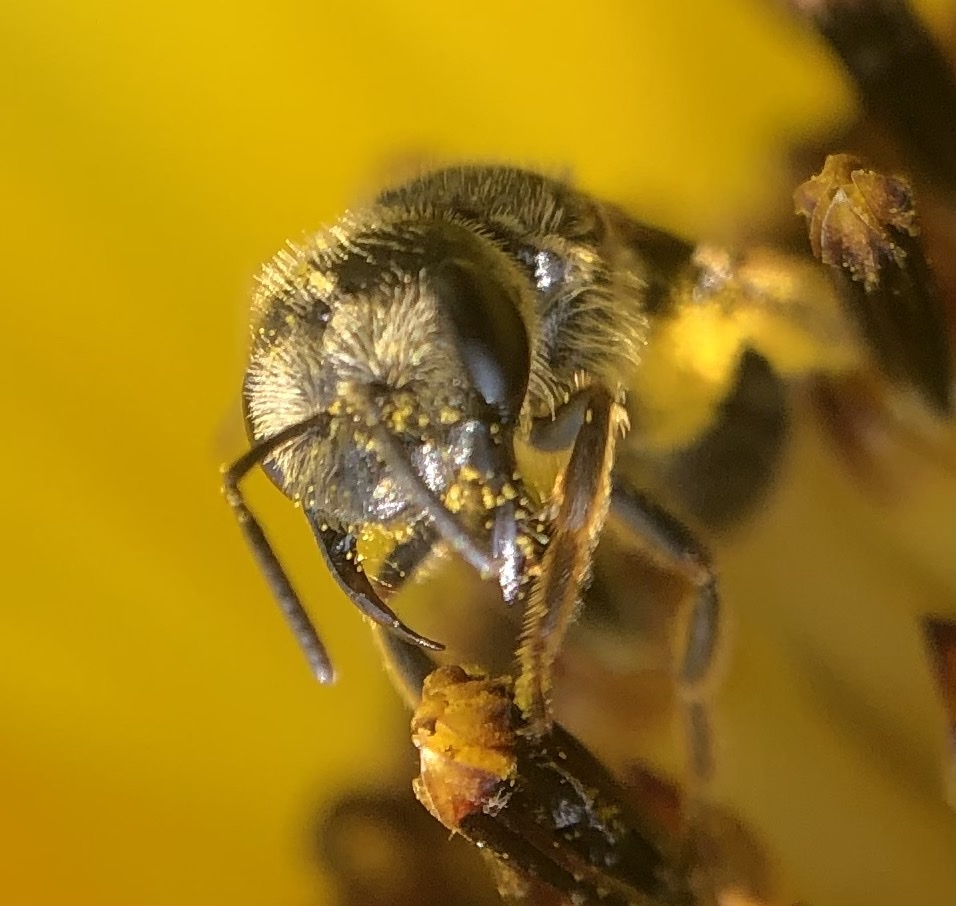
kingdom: Animalia
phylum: Arthropoda
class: Insecta
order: Hymenoptera
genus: Odontalictus
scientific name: Odontalictus
